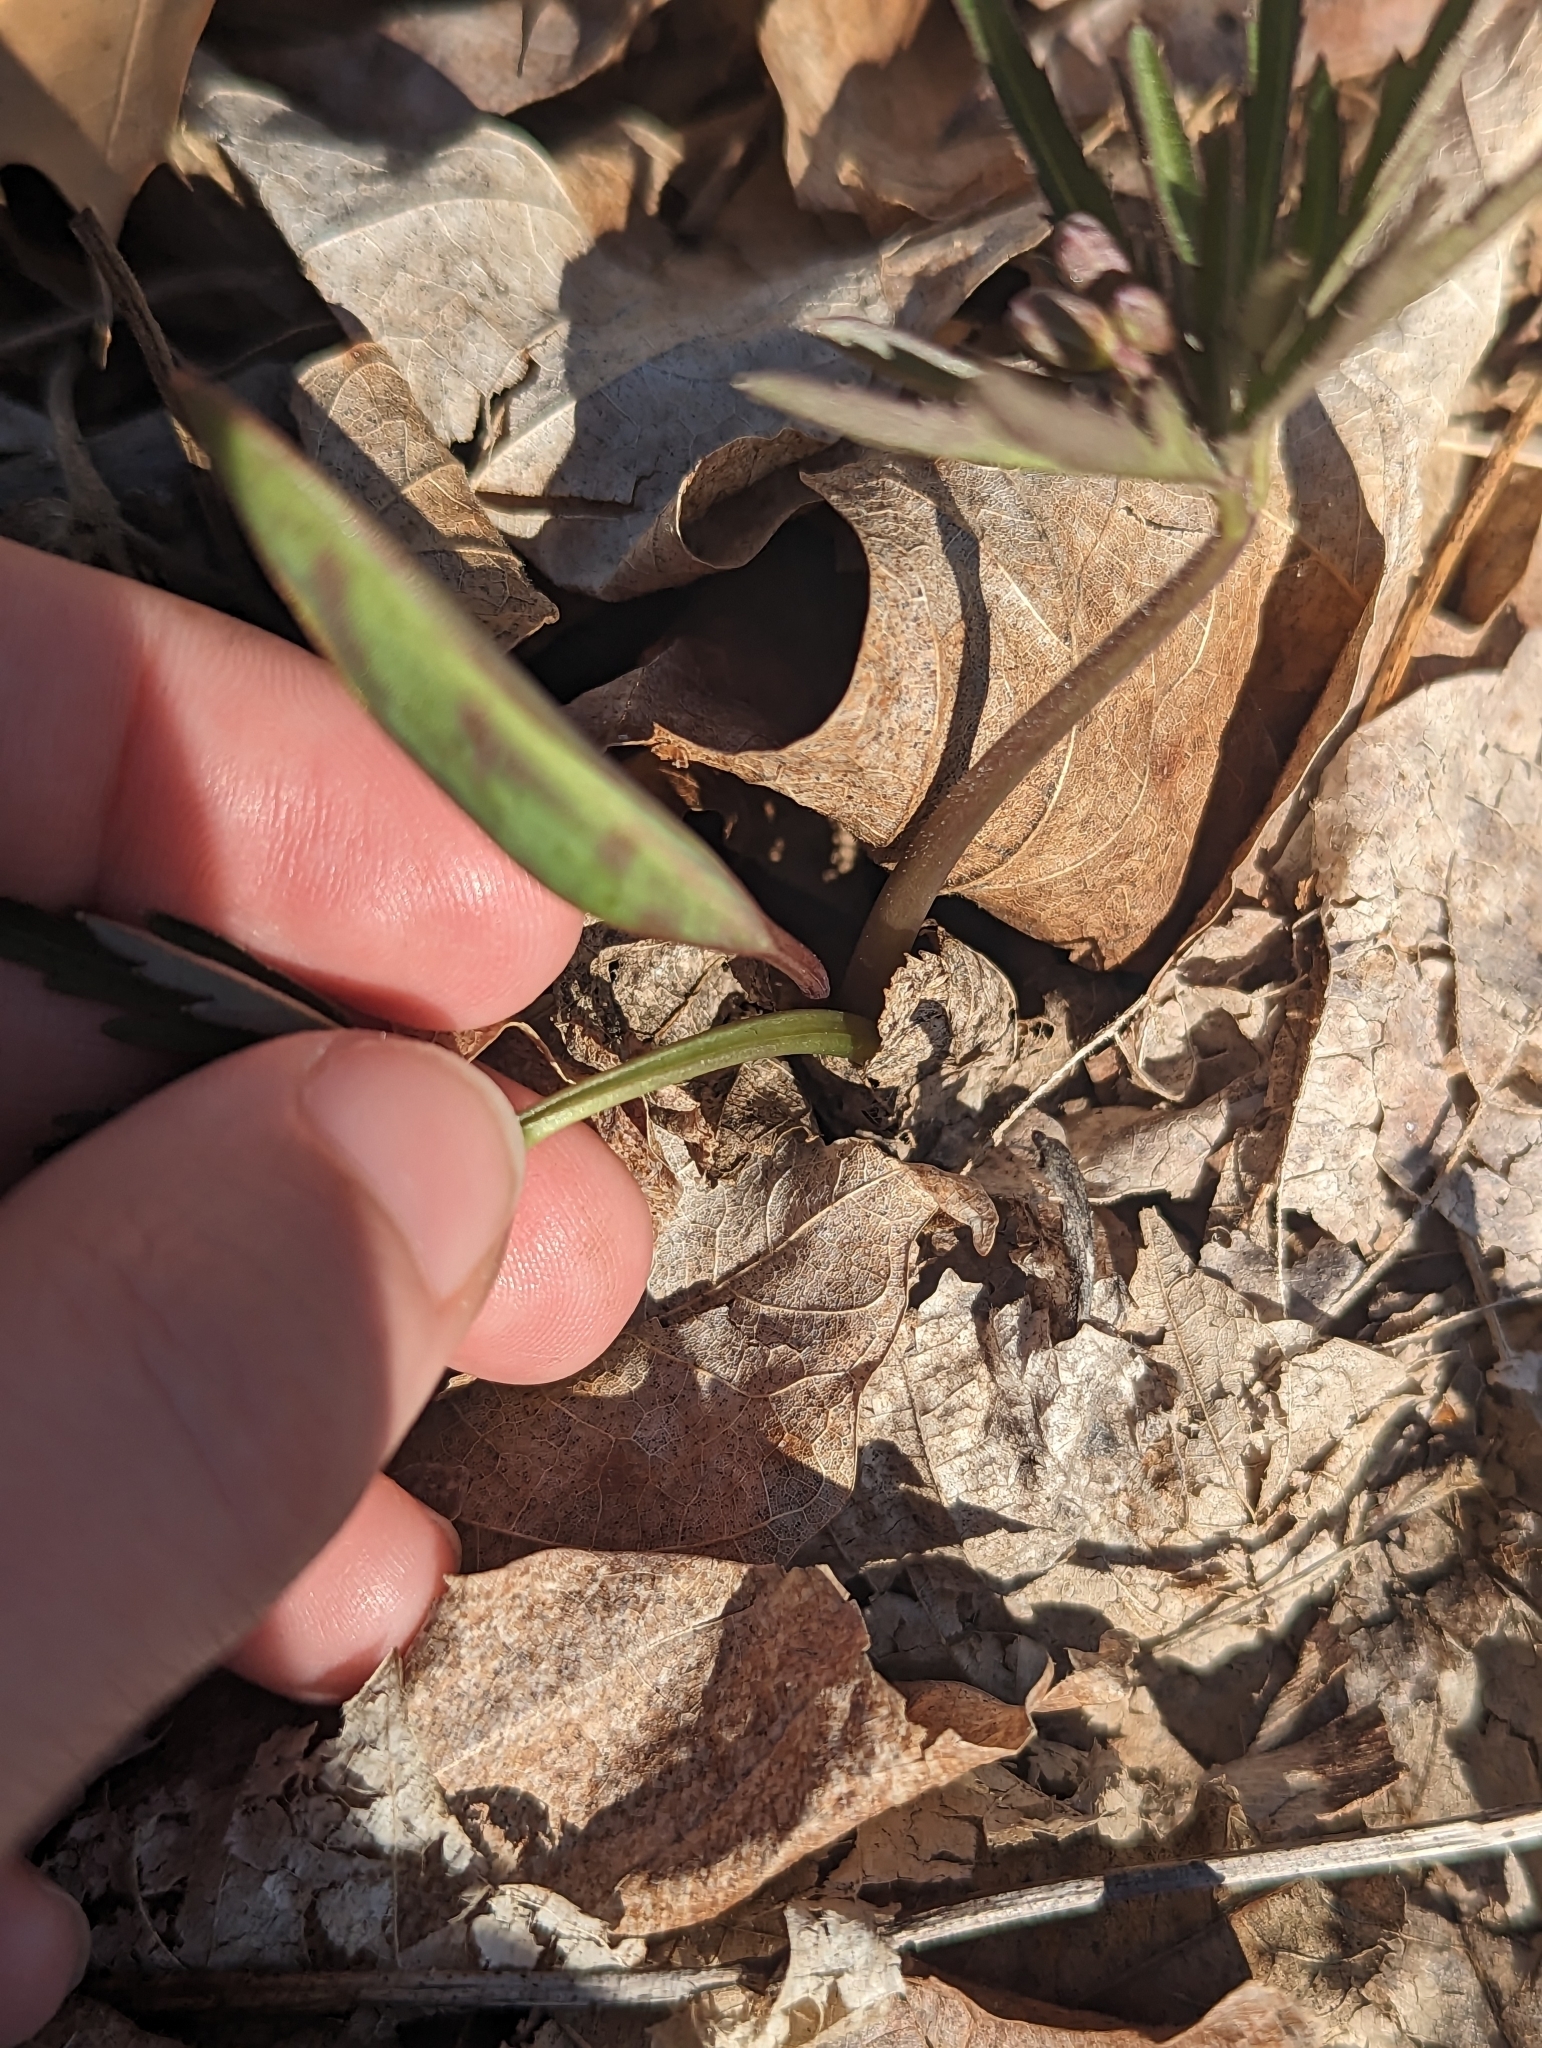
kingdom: Plantae
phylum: Tracheophyta
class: Magnoliopsida
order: Brassicales
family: Brassicaceae
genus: Cardamine
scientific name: Cardamine concatenata
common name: Cut-leaf toothcup
